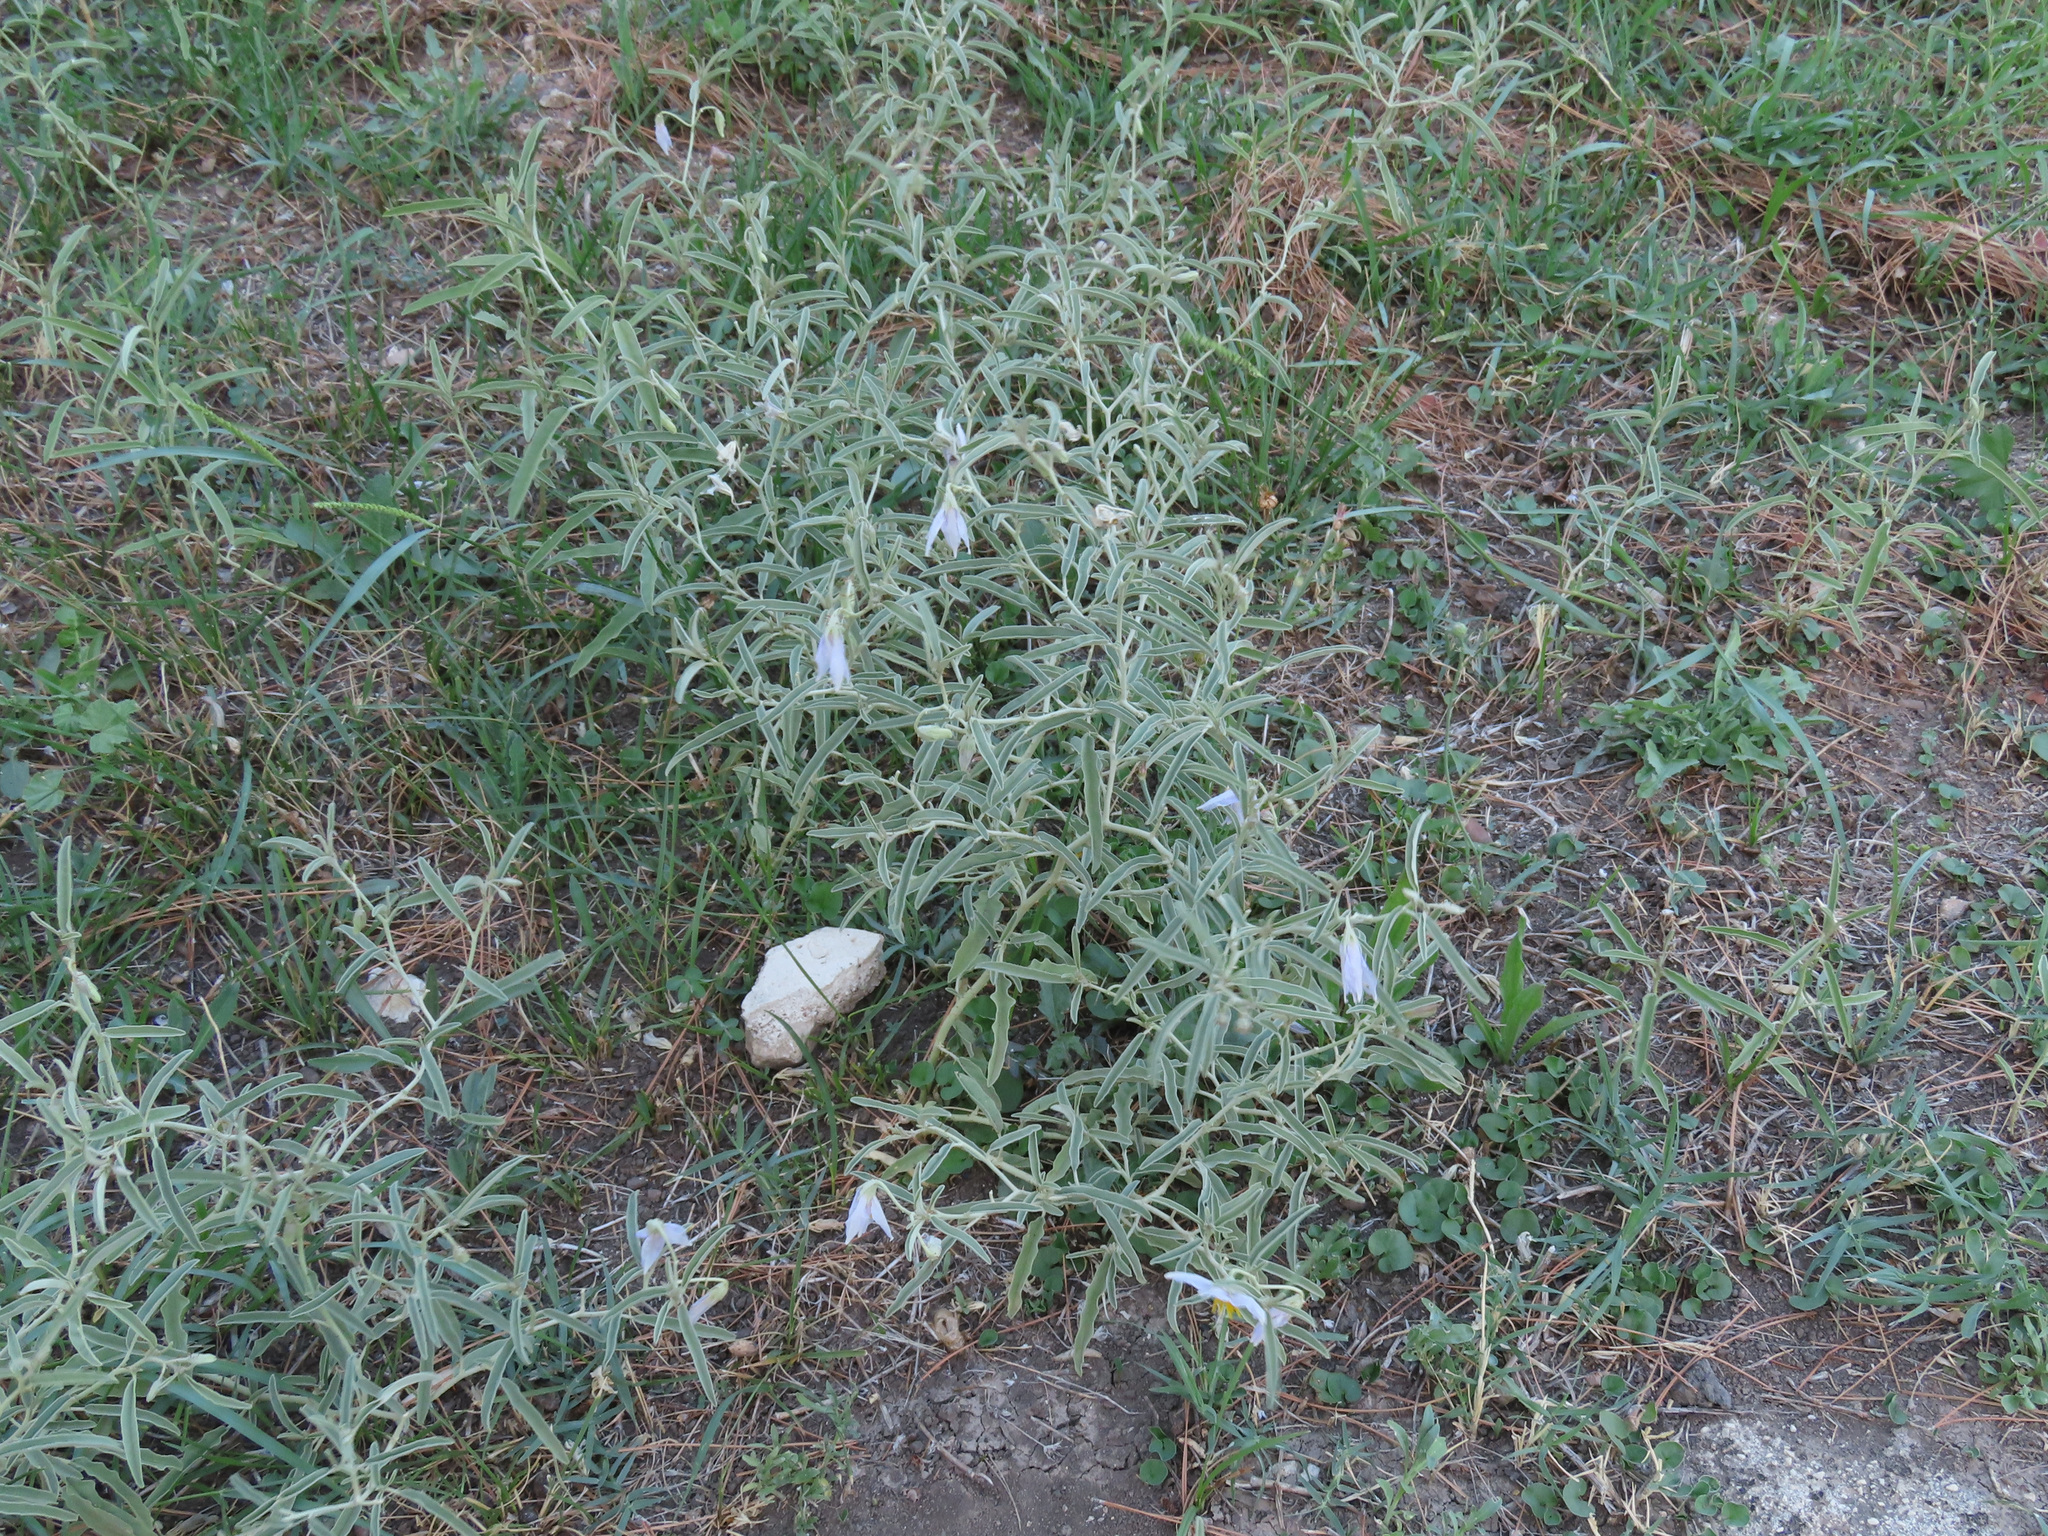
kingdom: Plantae
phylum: Tracheophyta
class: Magnoliopsida
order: Solanales
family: Solanaceae
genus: Solanum
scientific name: Solanum elaeagnifolium
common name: Silverleaf nightshade
